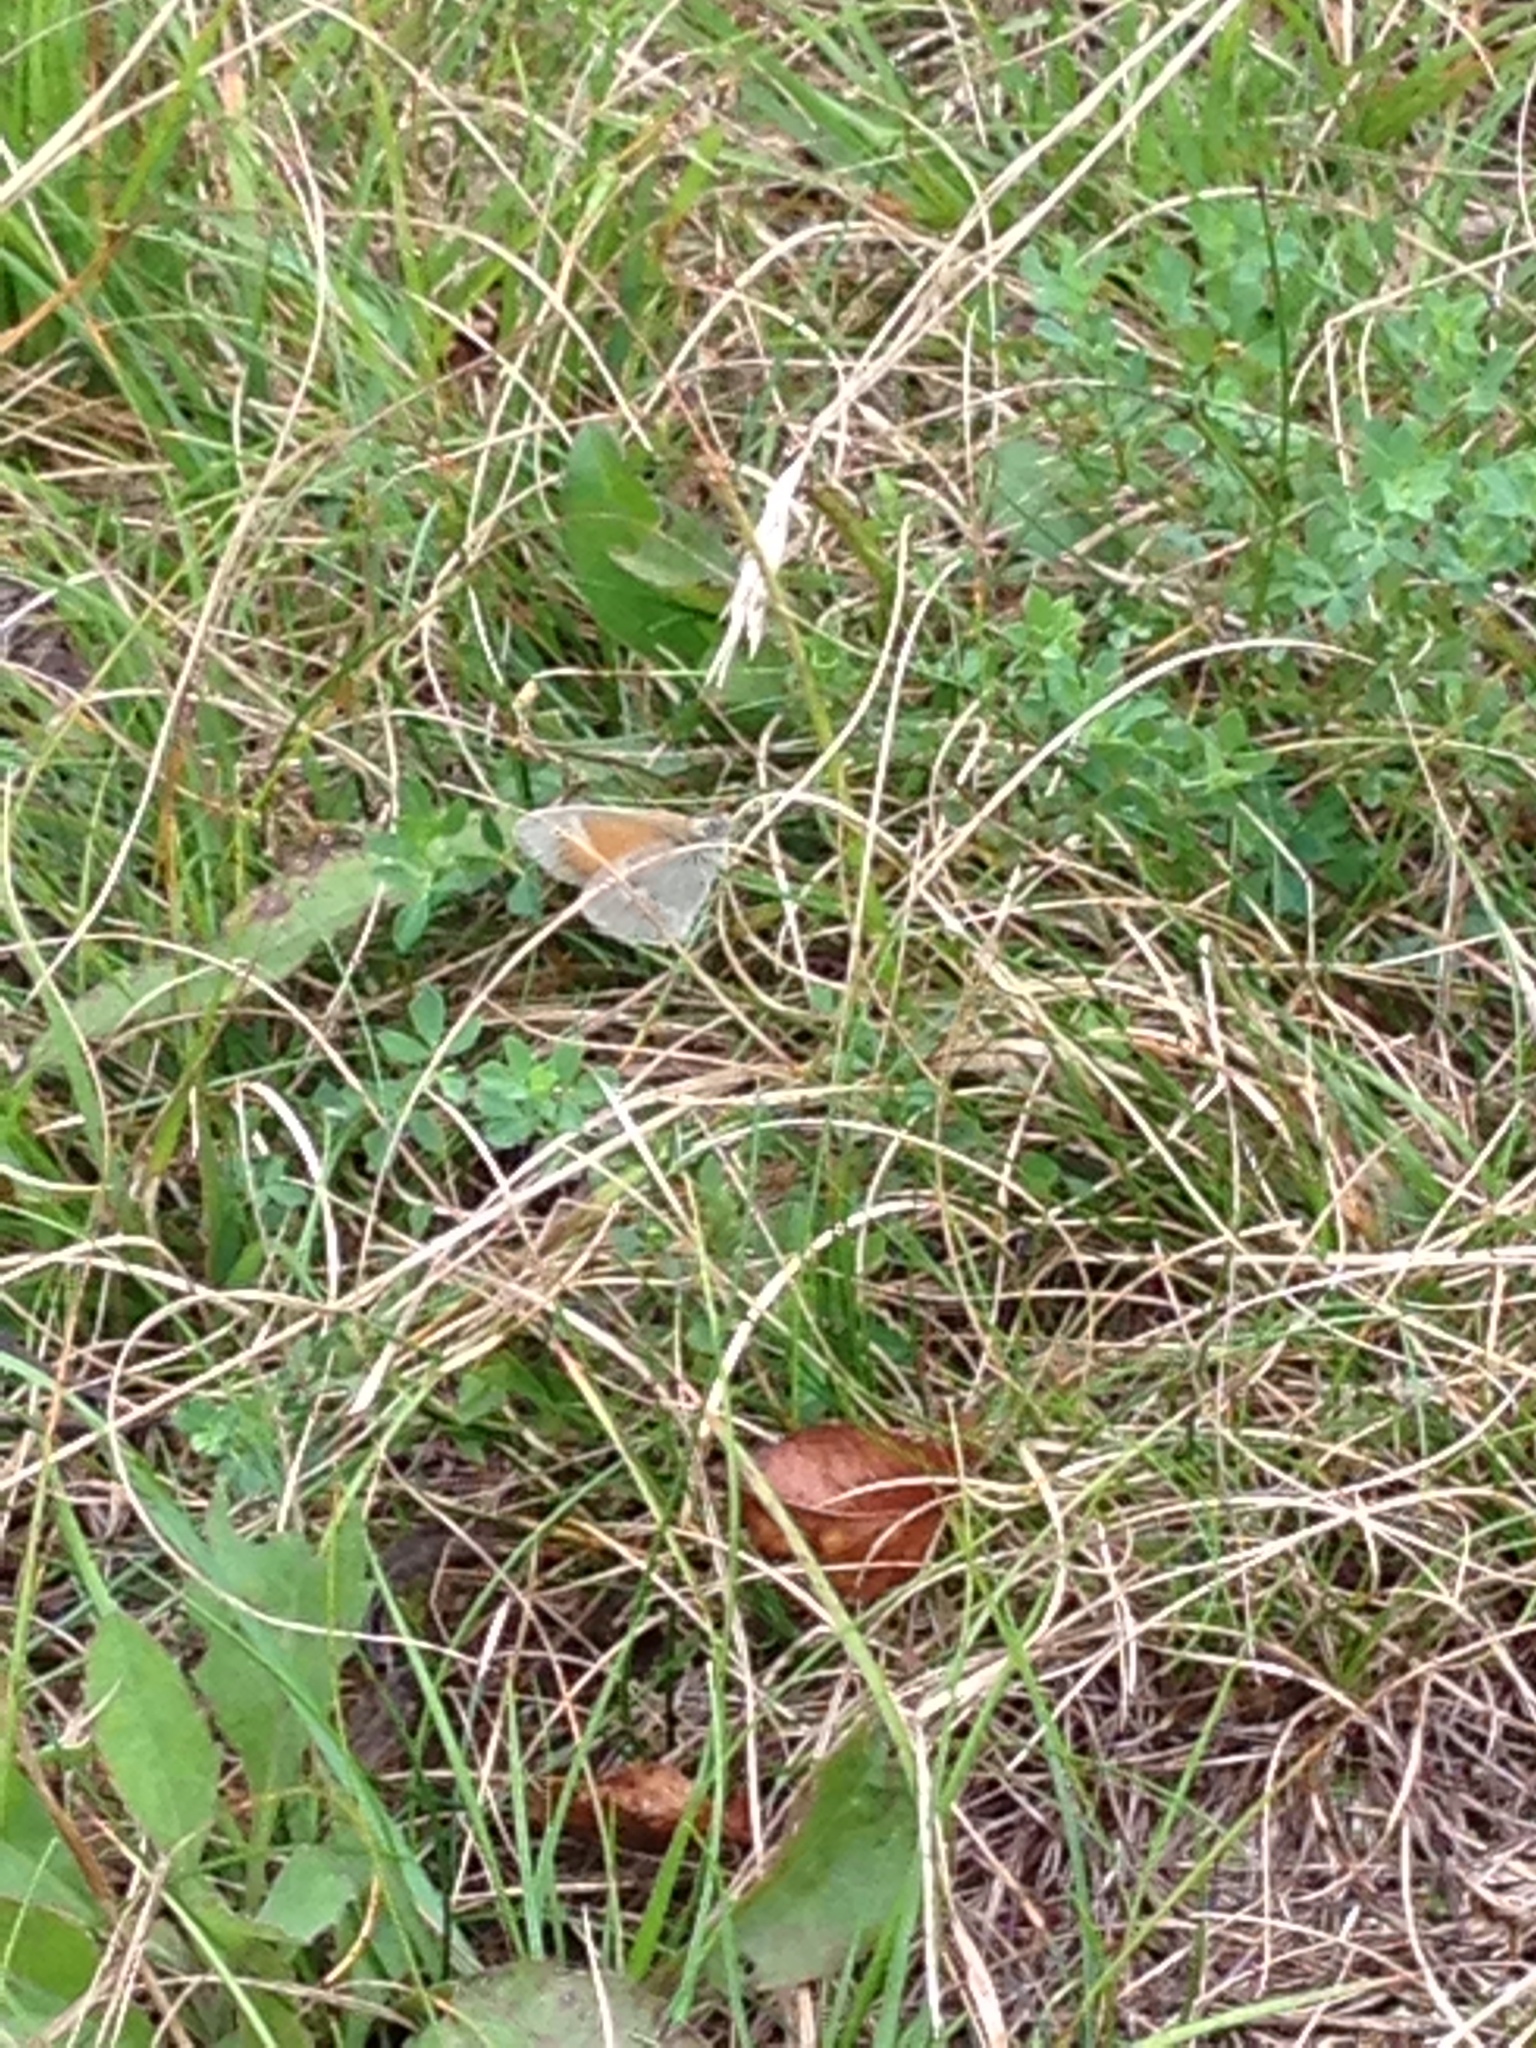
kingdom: Animalia
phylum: Arthropoda
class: Insecta
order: Lepidoptera
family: Nymphalidae
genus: Coenonympha
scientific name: Coenonympha california
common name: Common ringlet
